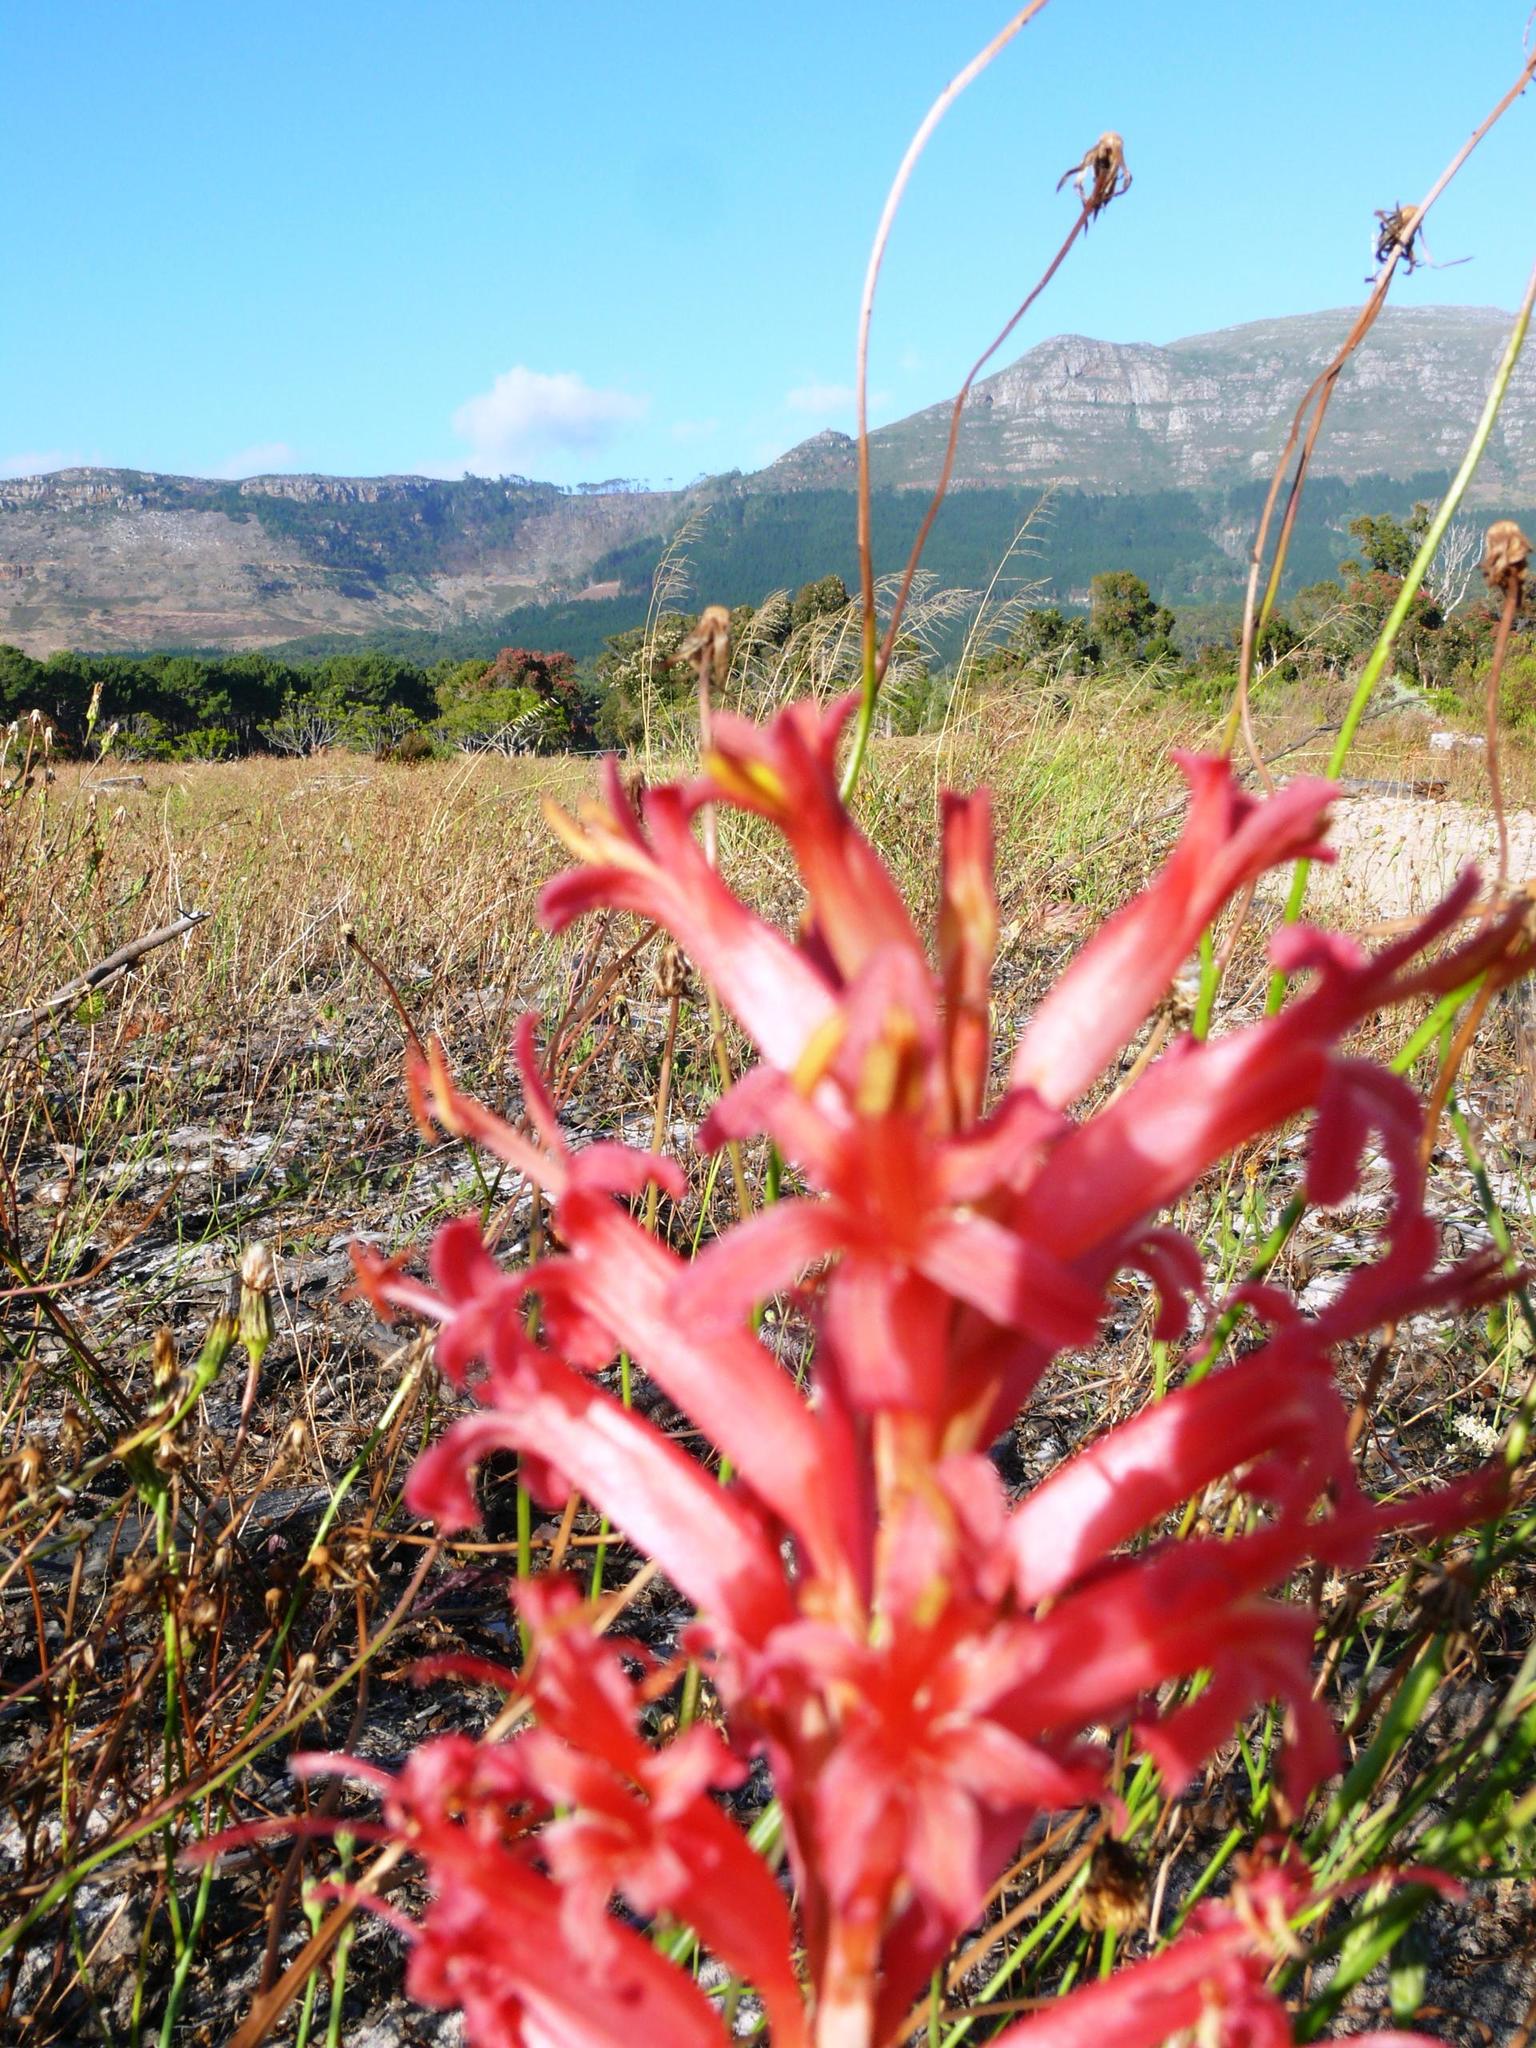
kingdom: Plantae
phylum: Tracheophyta
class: Liliopsida
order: Asparagales
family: Iridaceae
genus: Tritoniopsis
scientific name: Tritoniopsis antholyza
